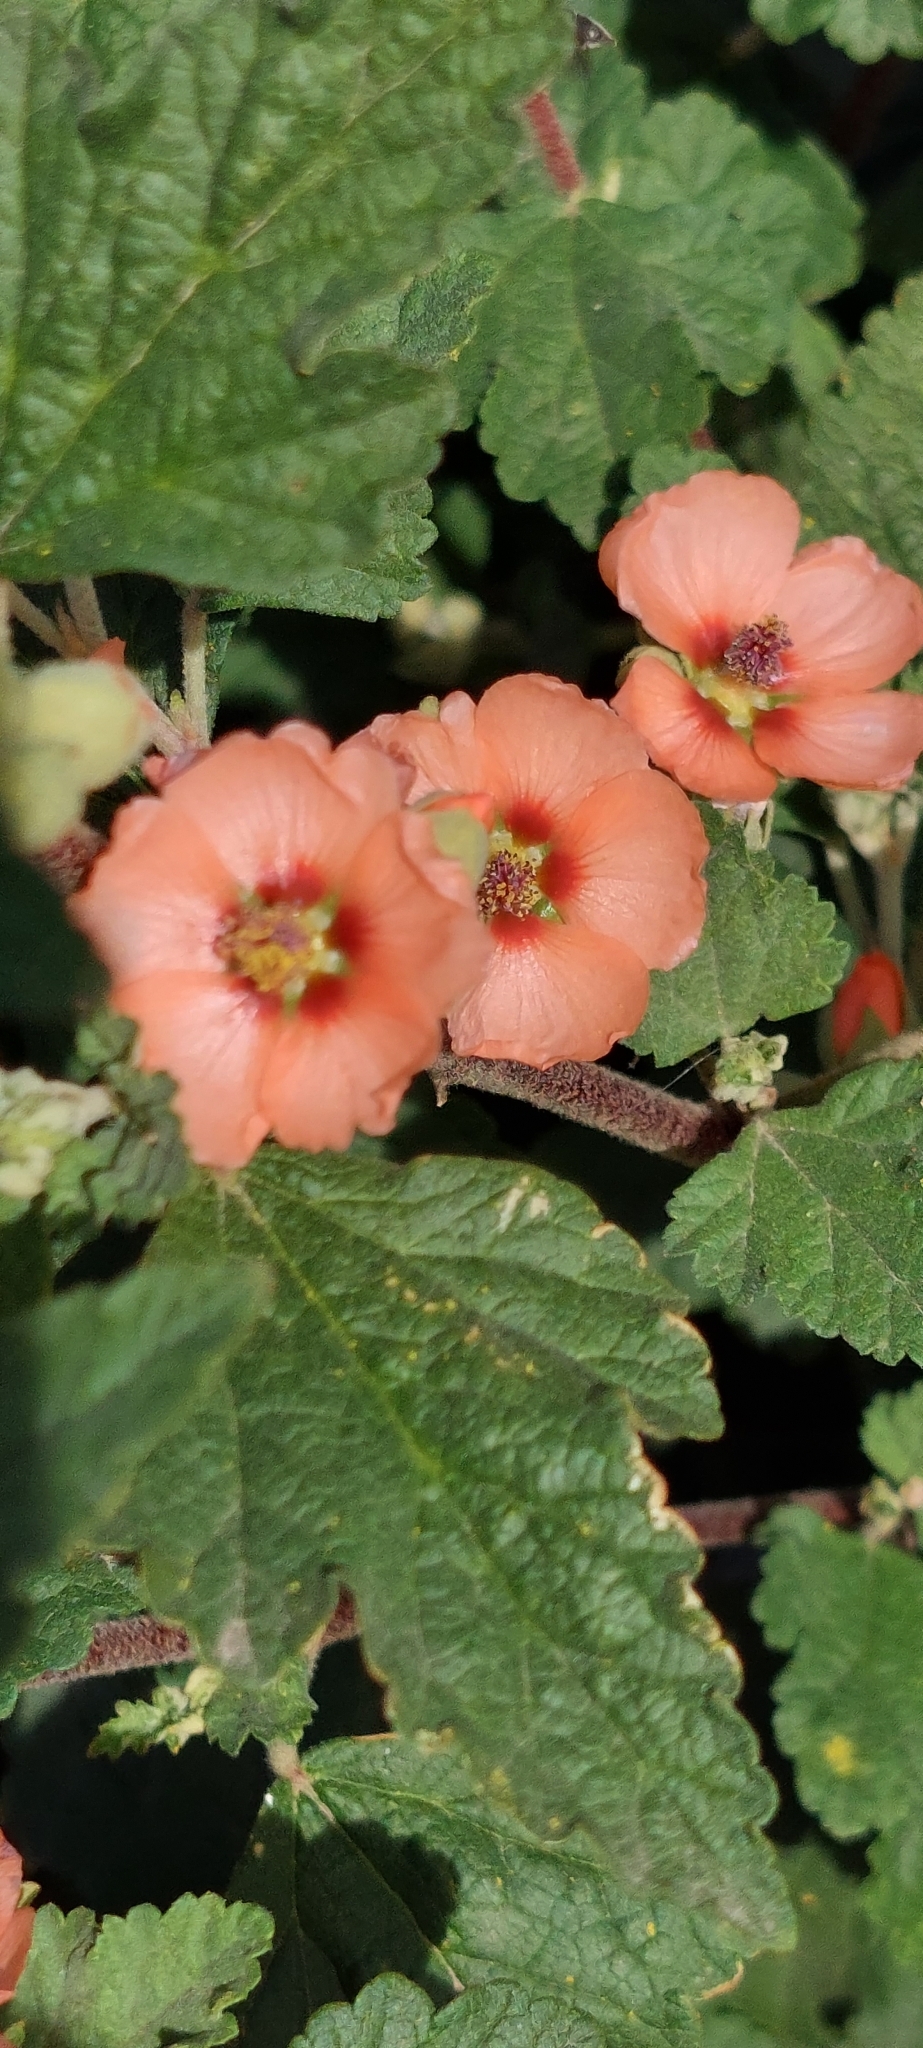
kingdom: Plantae
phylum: Tracheophyta
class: Magnoliopsida
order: Malvales
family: Malvaceae
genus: Sphaeralcea
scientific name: Sphaeralcea bonariensis
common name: Latin globemallow
